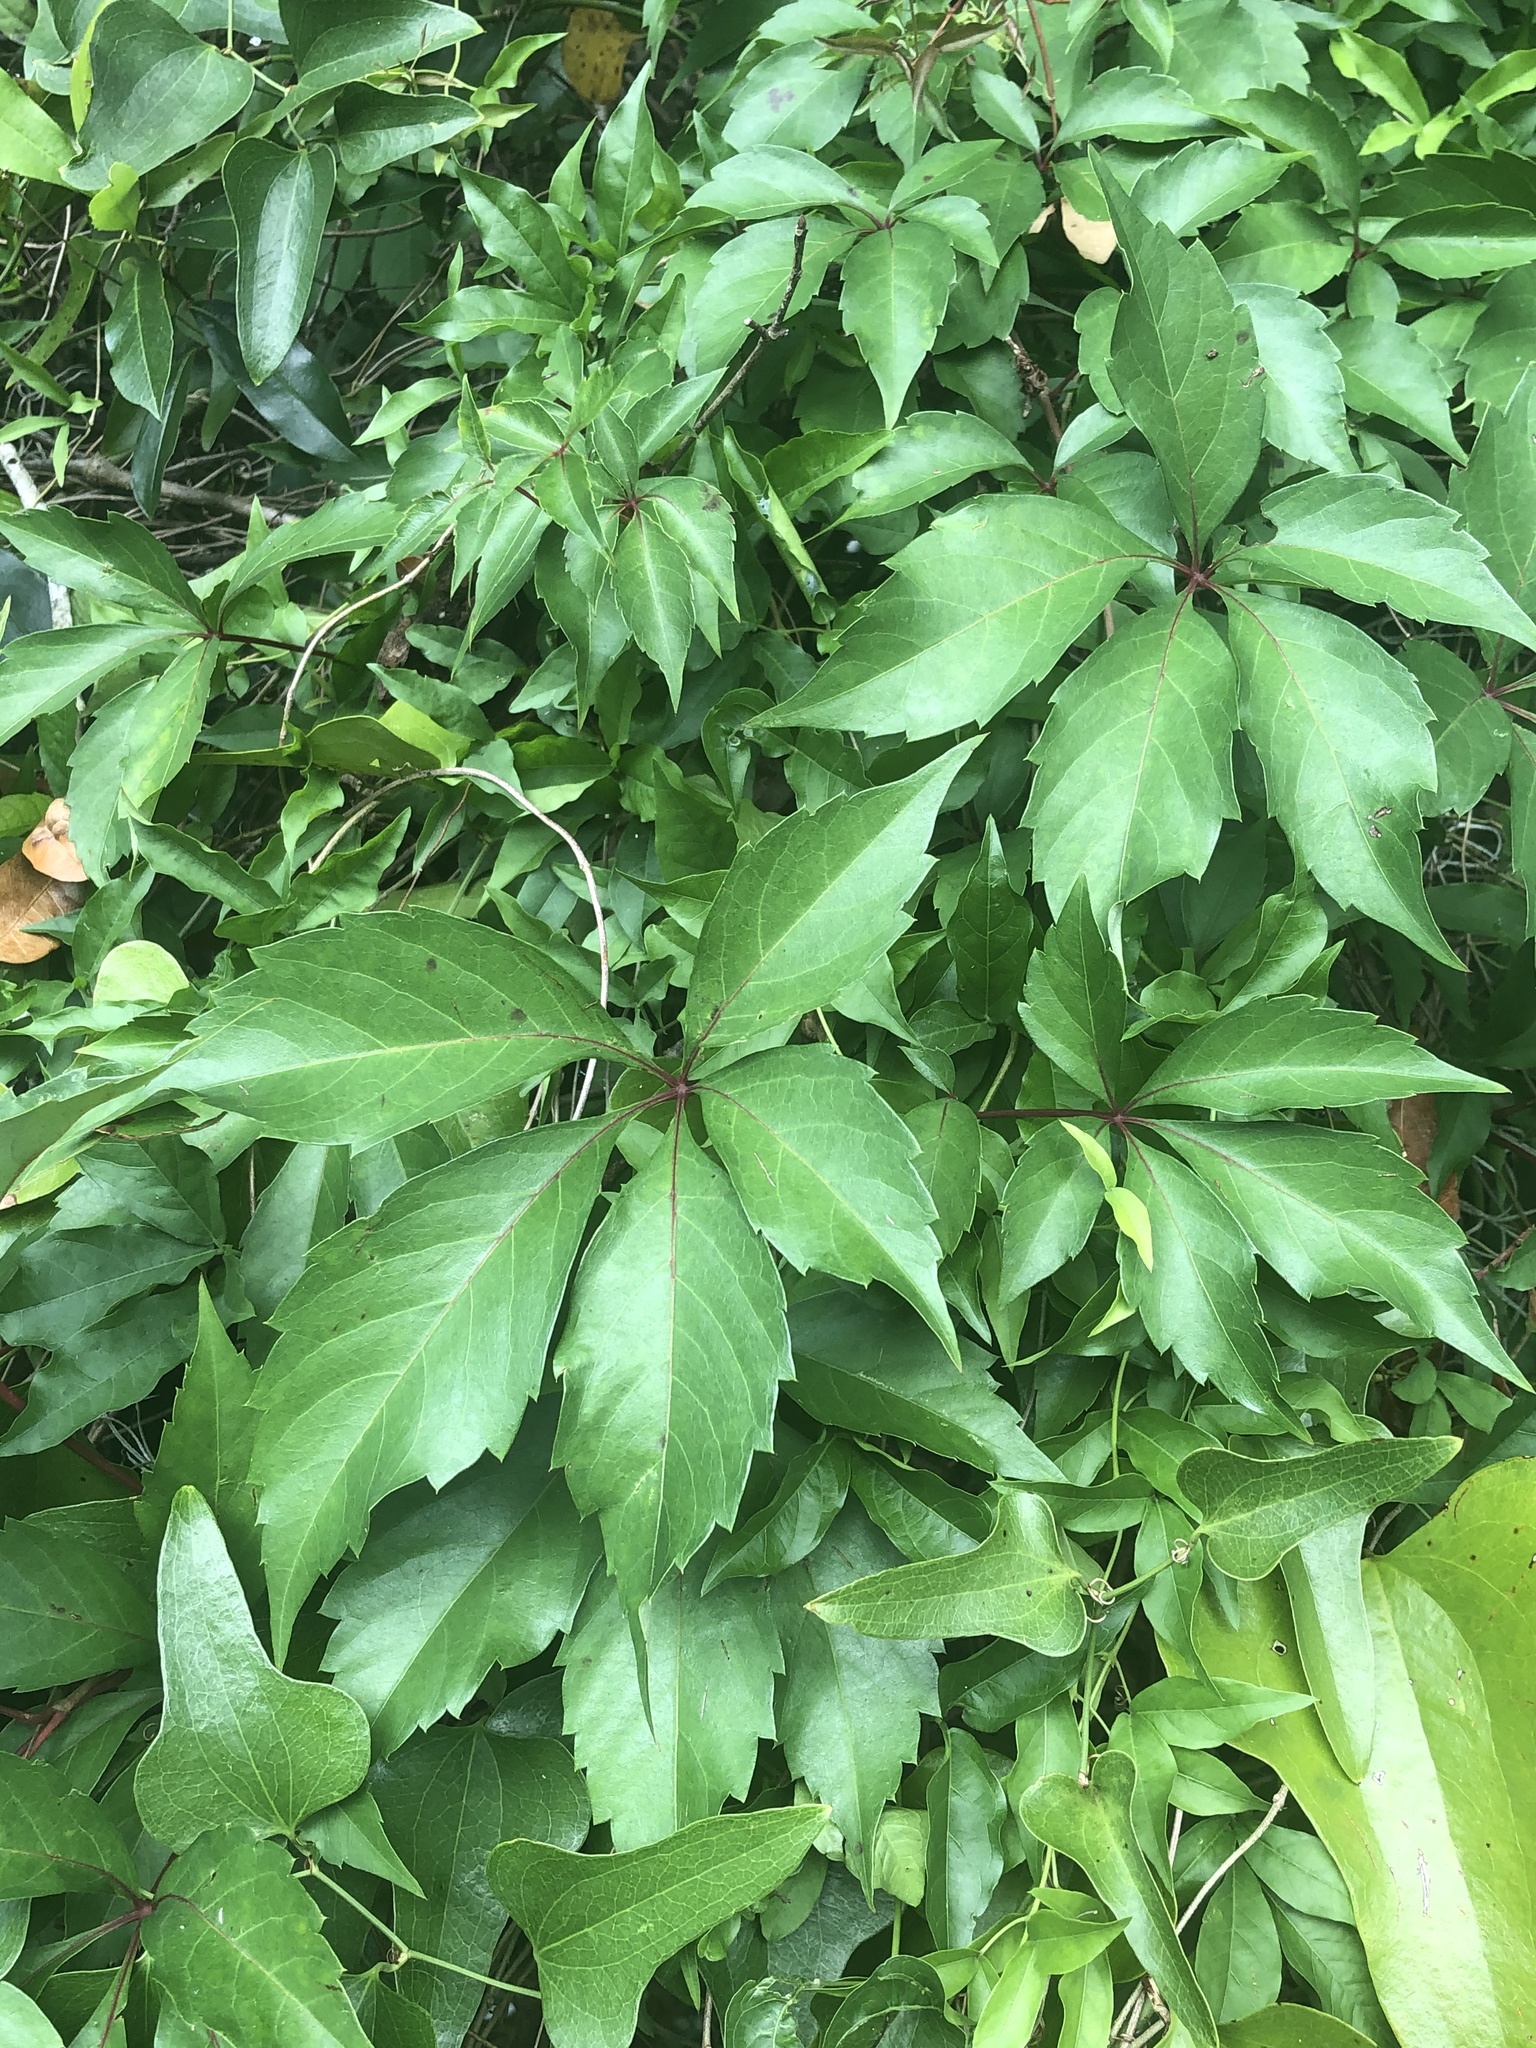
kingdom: Plantae
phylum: Tracheophyta
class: Magnoliopsida
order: Vitales
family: Vitaceae
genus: Parthenocissus
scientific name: Parthenocissus quinquefolia
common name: Virginia-creeper
